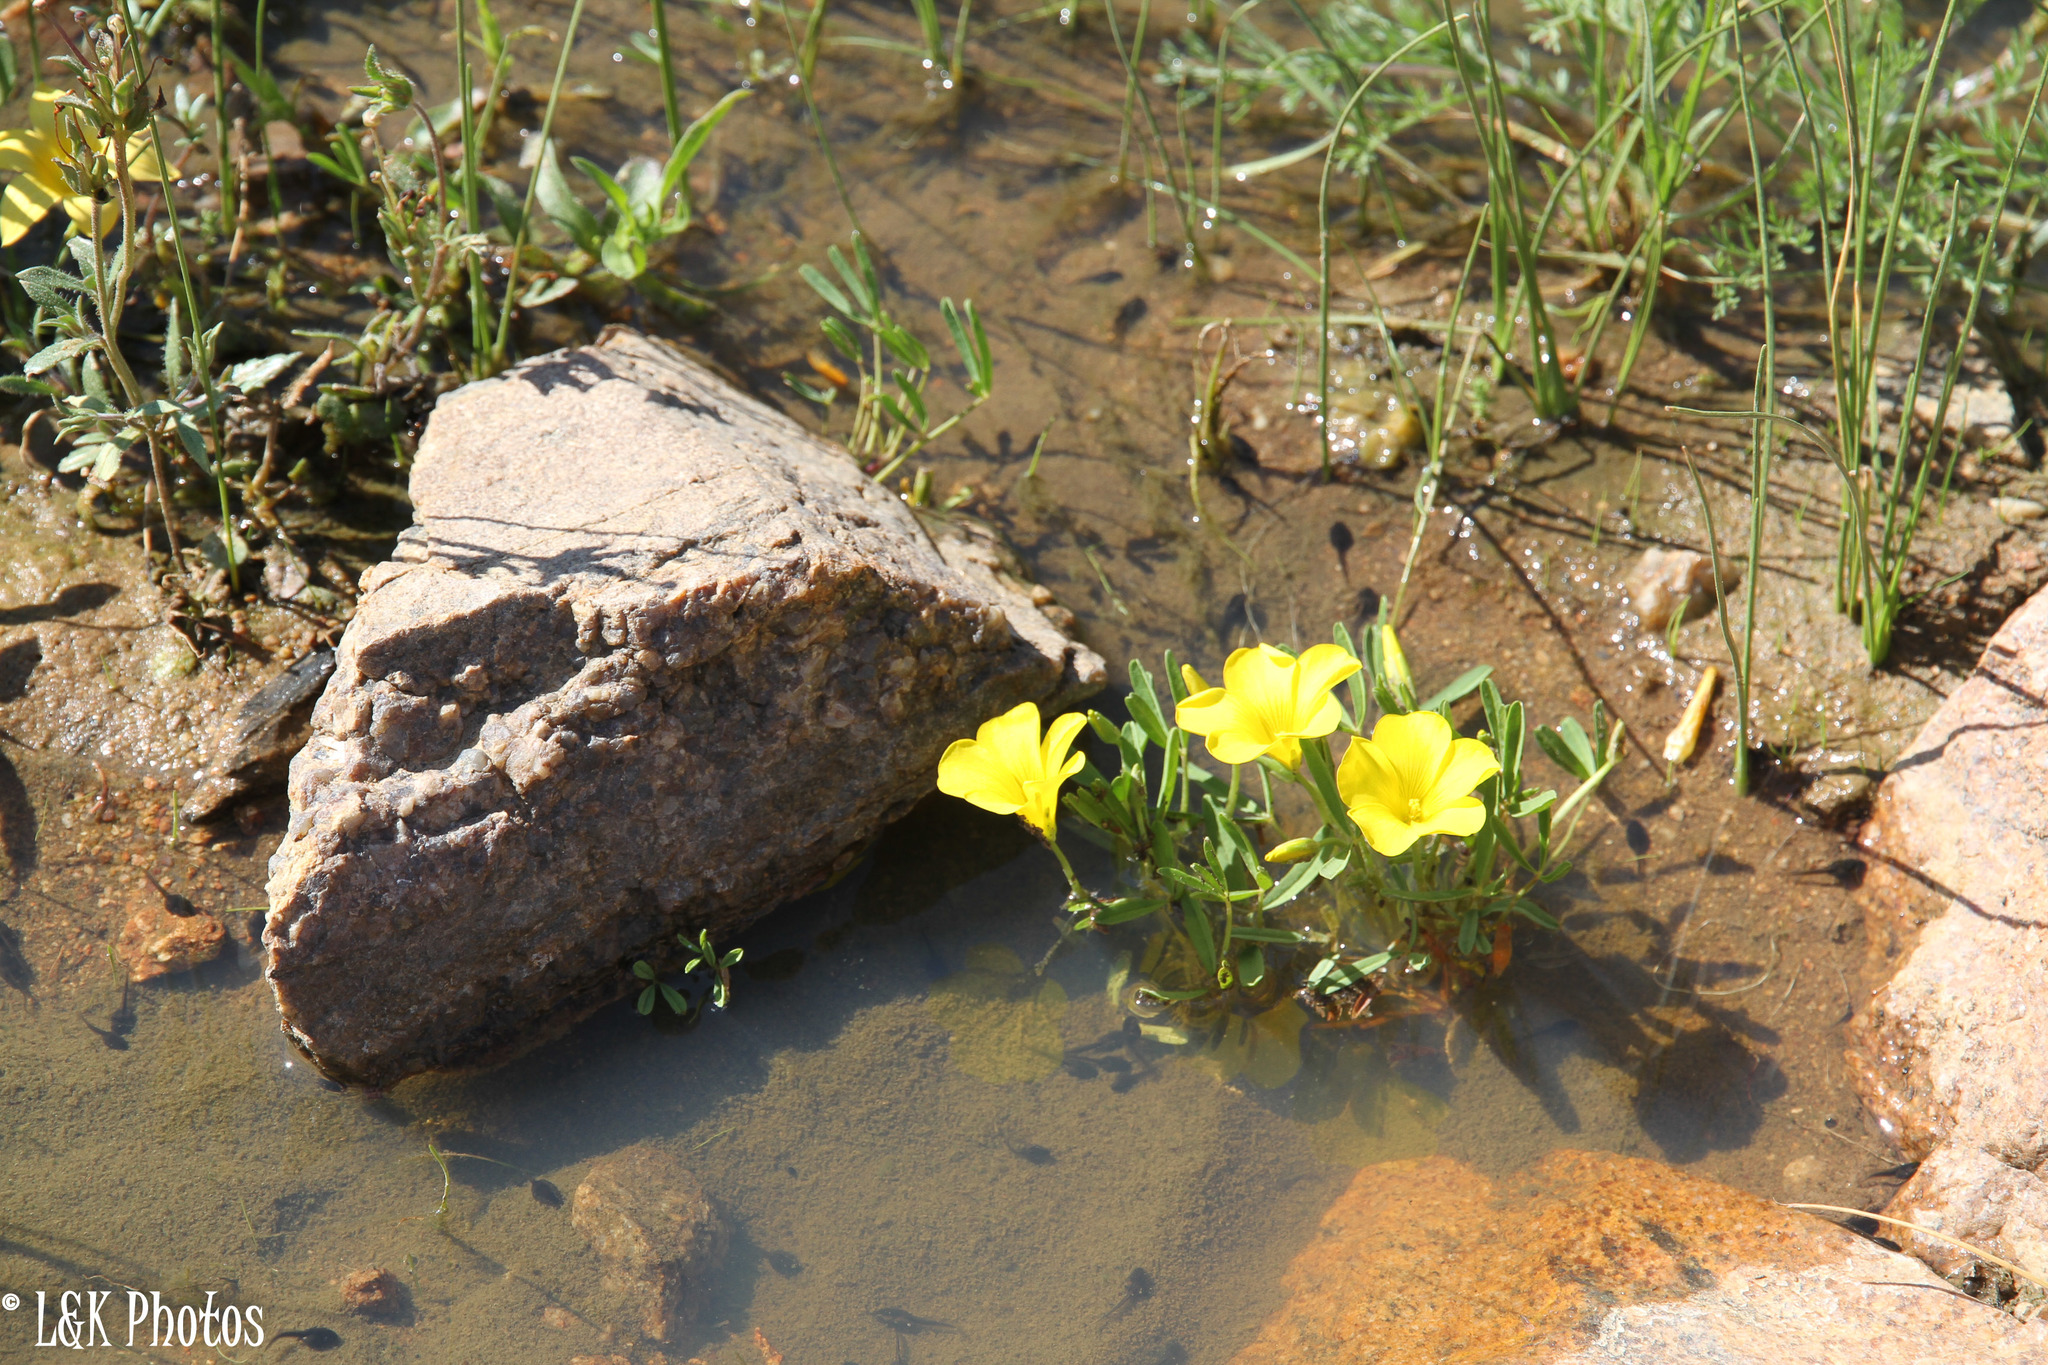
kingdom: Plantae
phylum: Tracheophyta
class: Magnoliopsida
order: Oxalidales
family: Oxalidaceae
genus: Oxalis
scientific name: Oxalis namaquana
